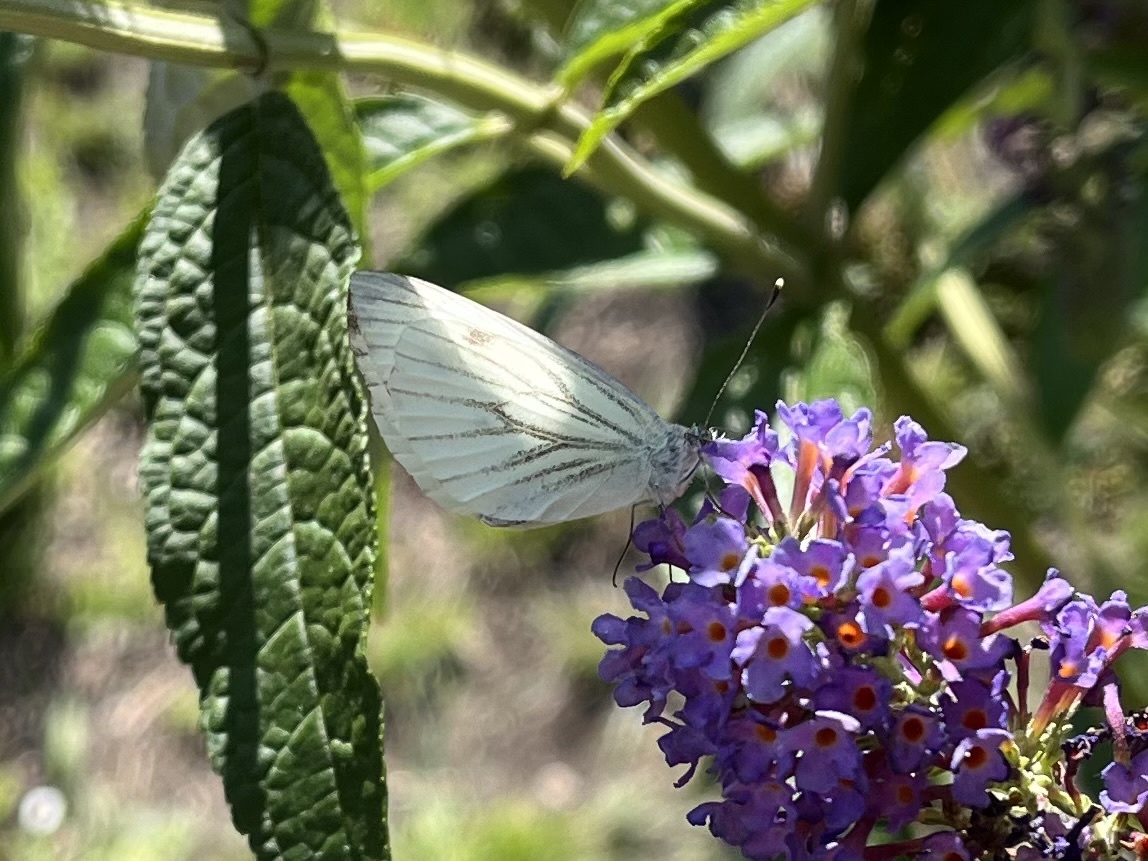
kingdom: Animalia
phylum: Arthropoda
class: Insecta
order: Lepidoptera
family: Pieridae
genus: Pieris
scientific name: Pieris napi
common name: Green-veined white
